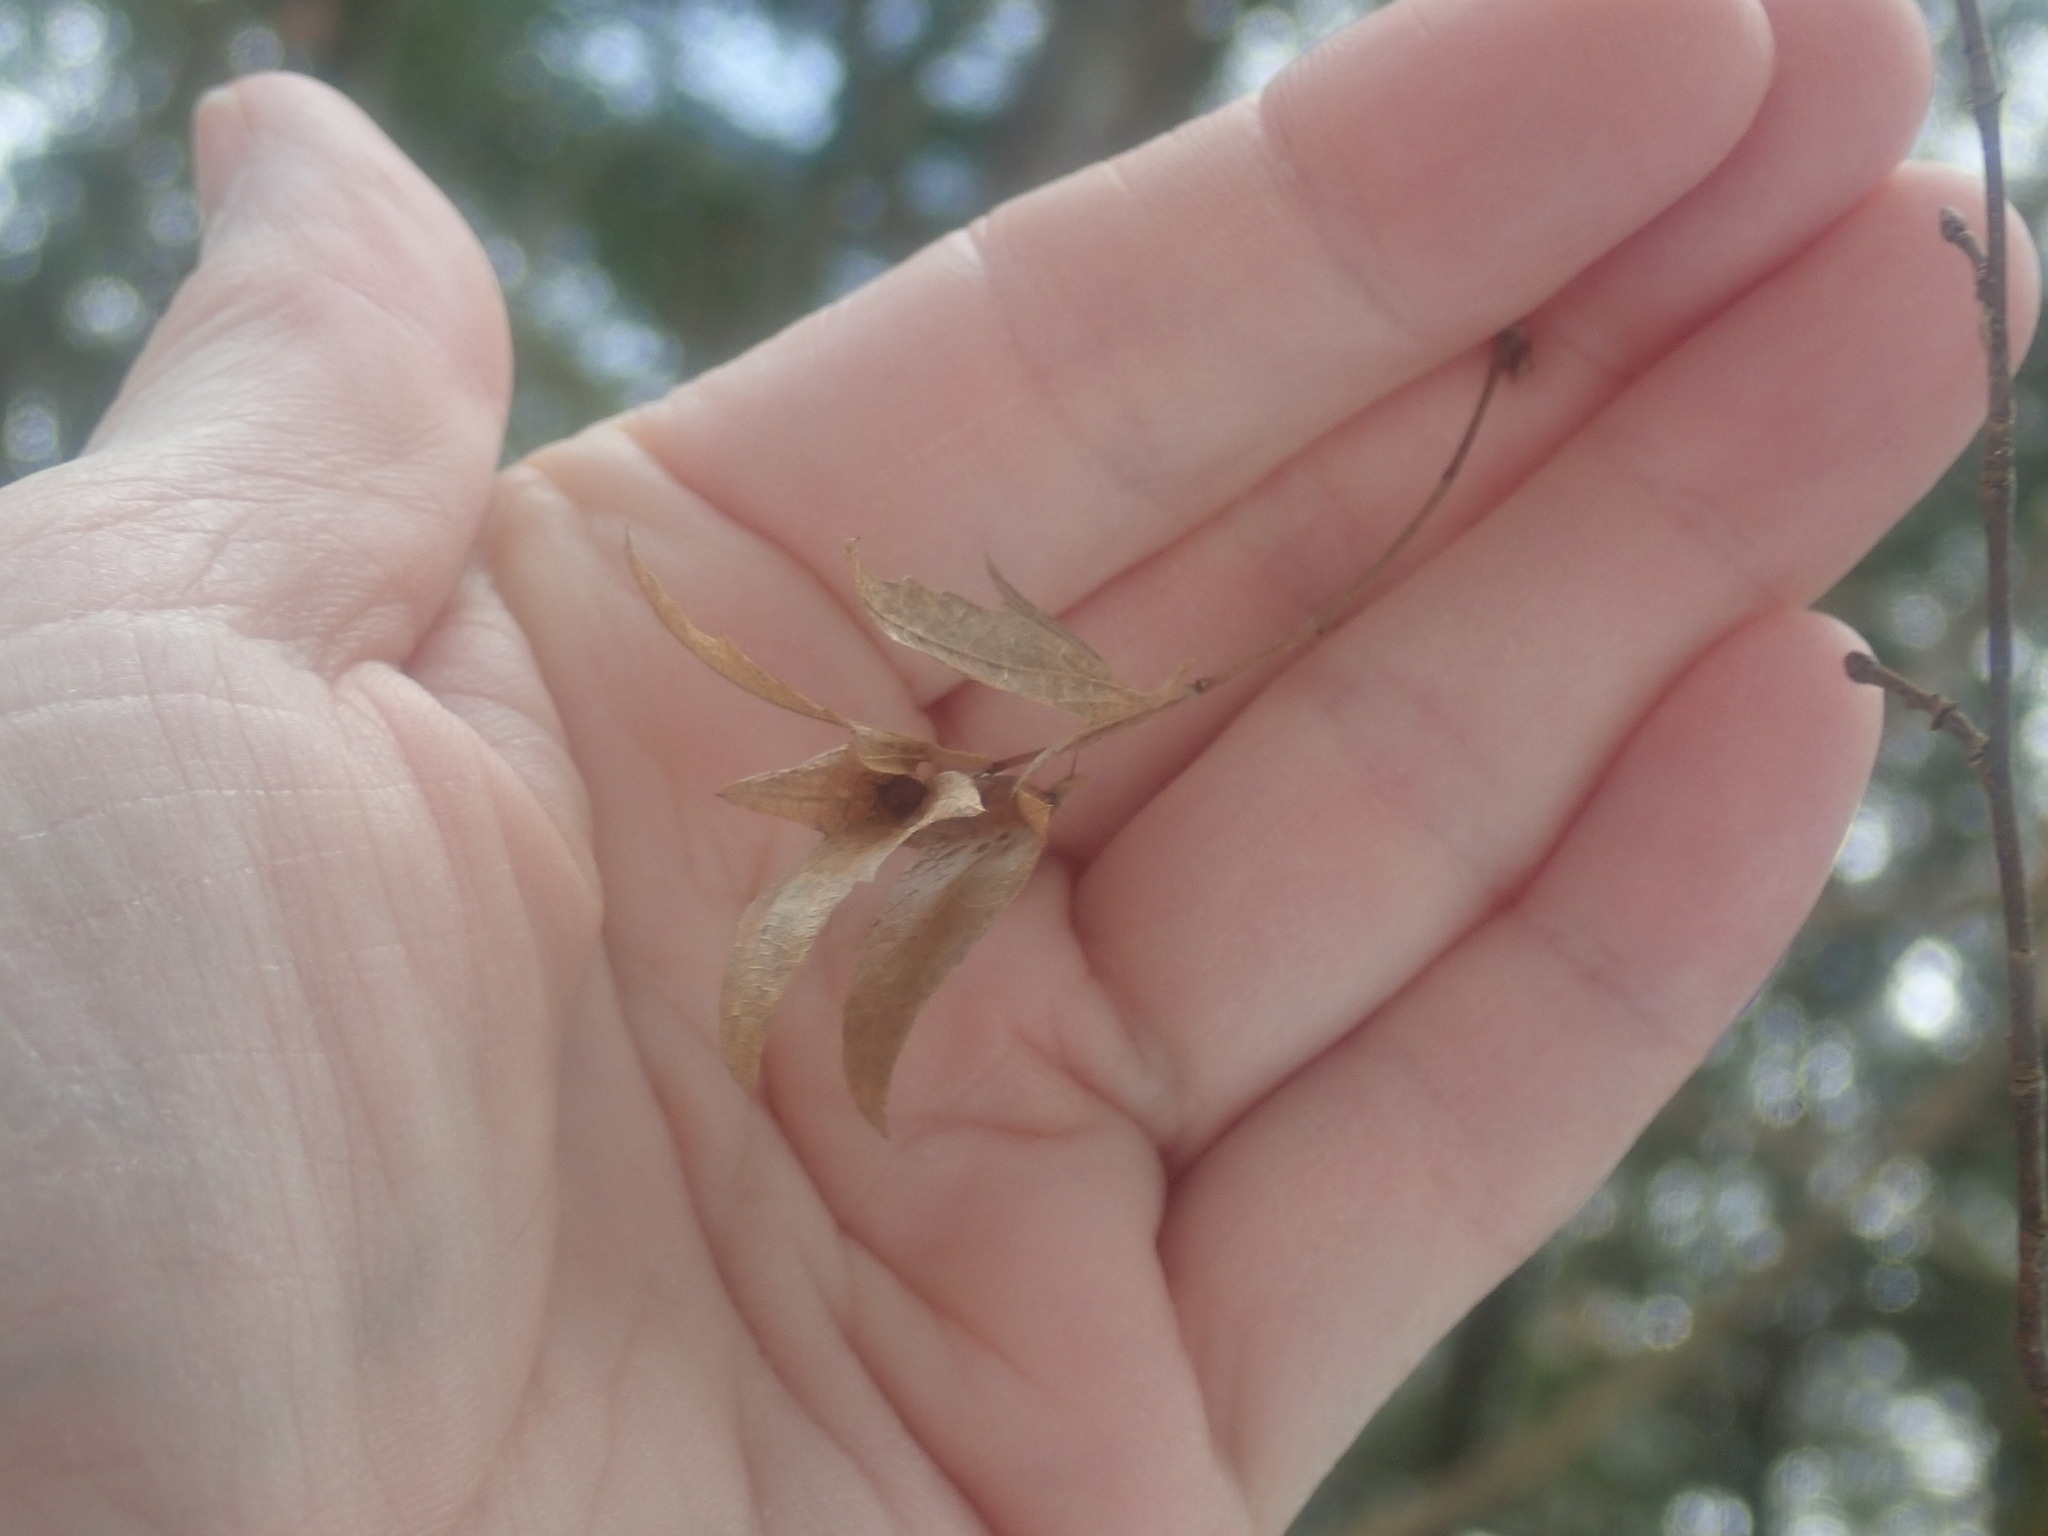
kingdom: Plantae
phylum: Tracheophyta
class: Magnoliopsida
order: Fagales
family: Betulaceae
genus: Carpinus
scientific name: Carpinus caroliniana
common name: American hornbeam
